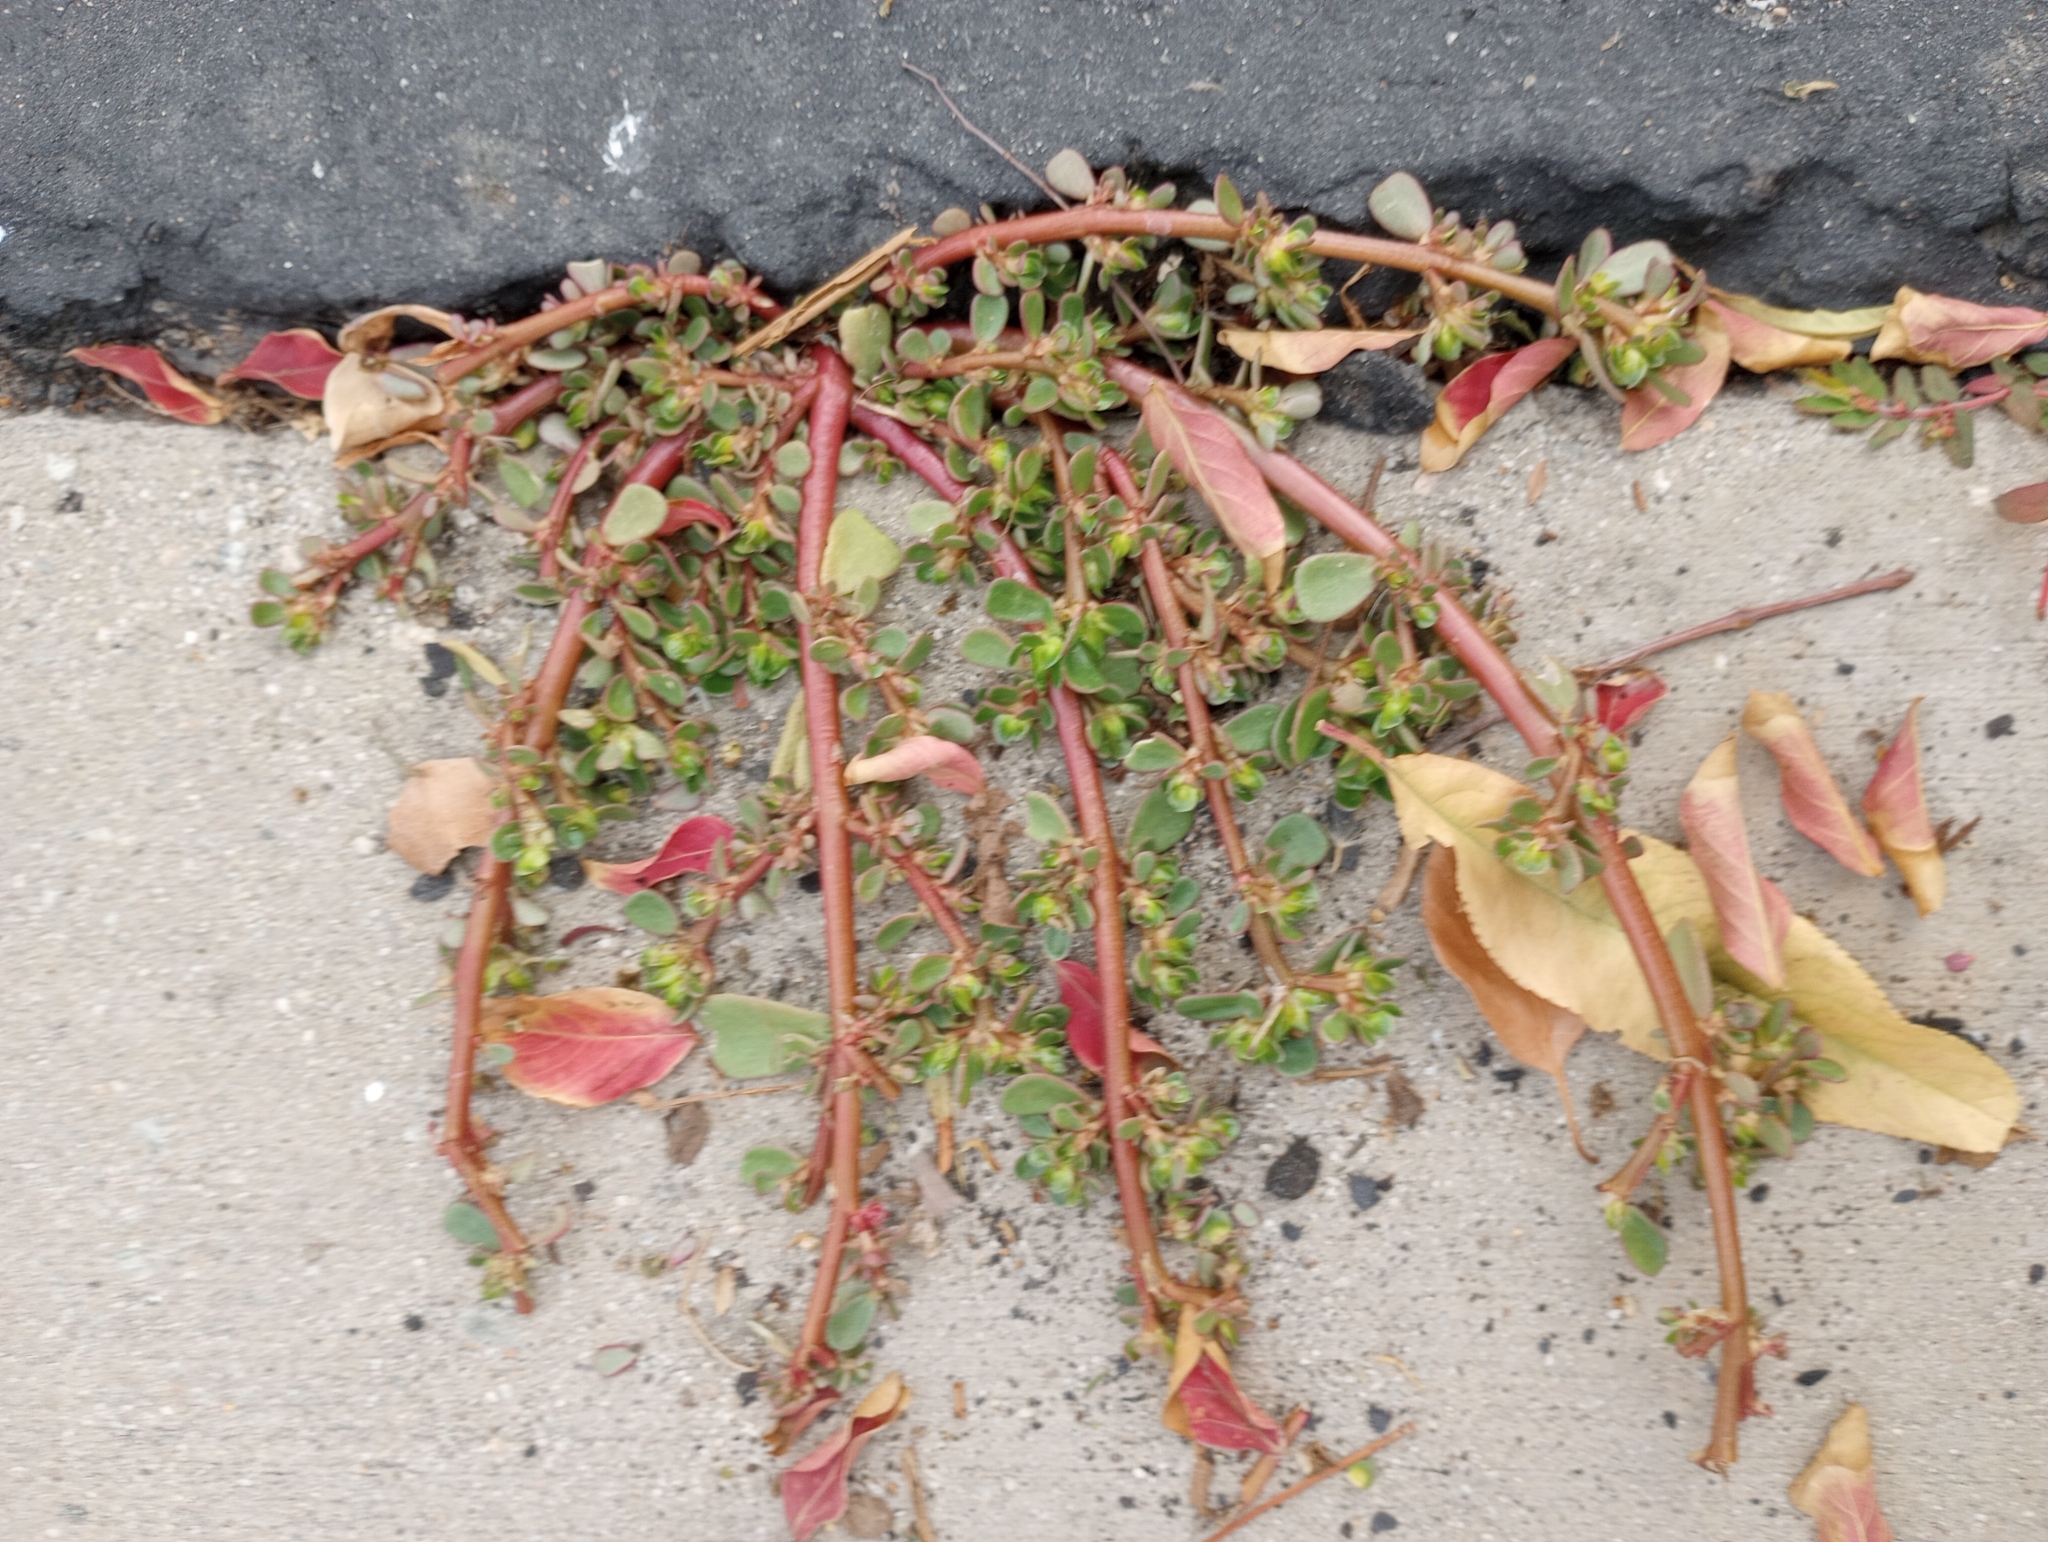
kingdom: Plantae
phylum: Tracheophyta
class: Magnoliopsida
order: Caryophyllales
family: Portulacaceae
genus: Portulaca
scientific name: Portulaca oleracea
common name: Common purslane
